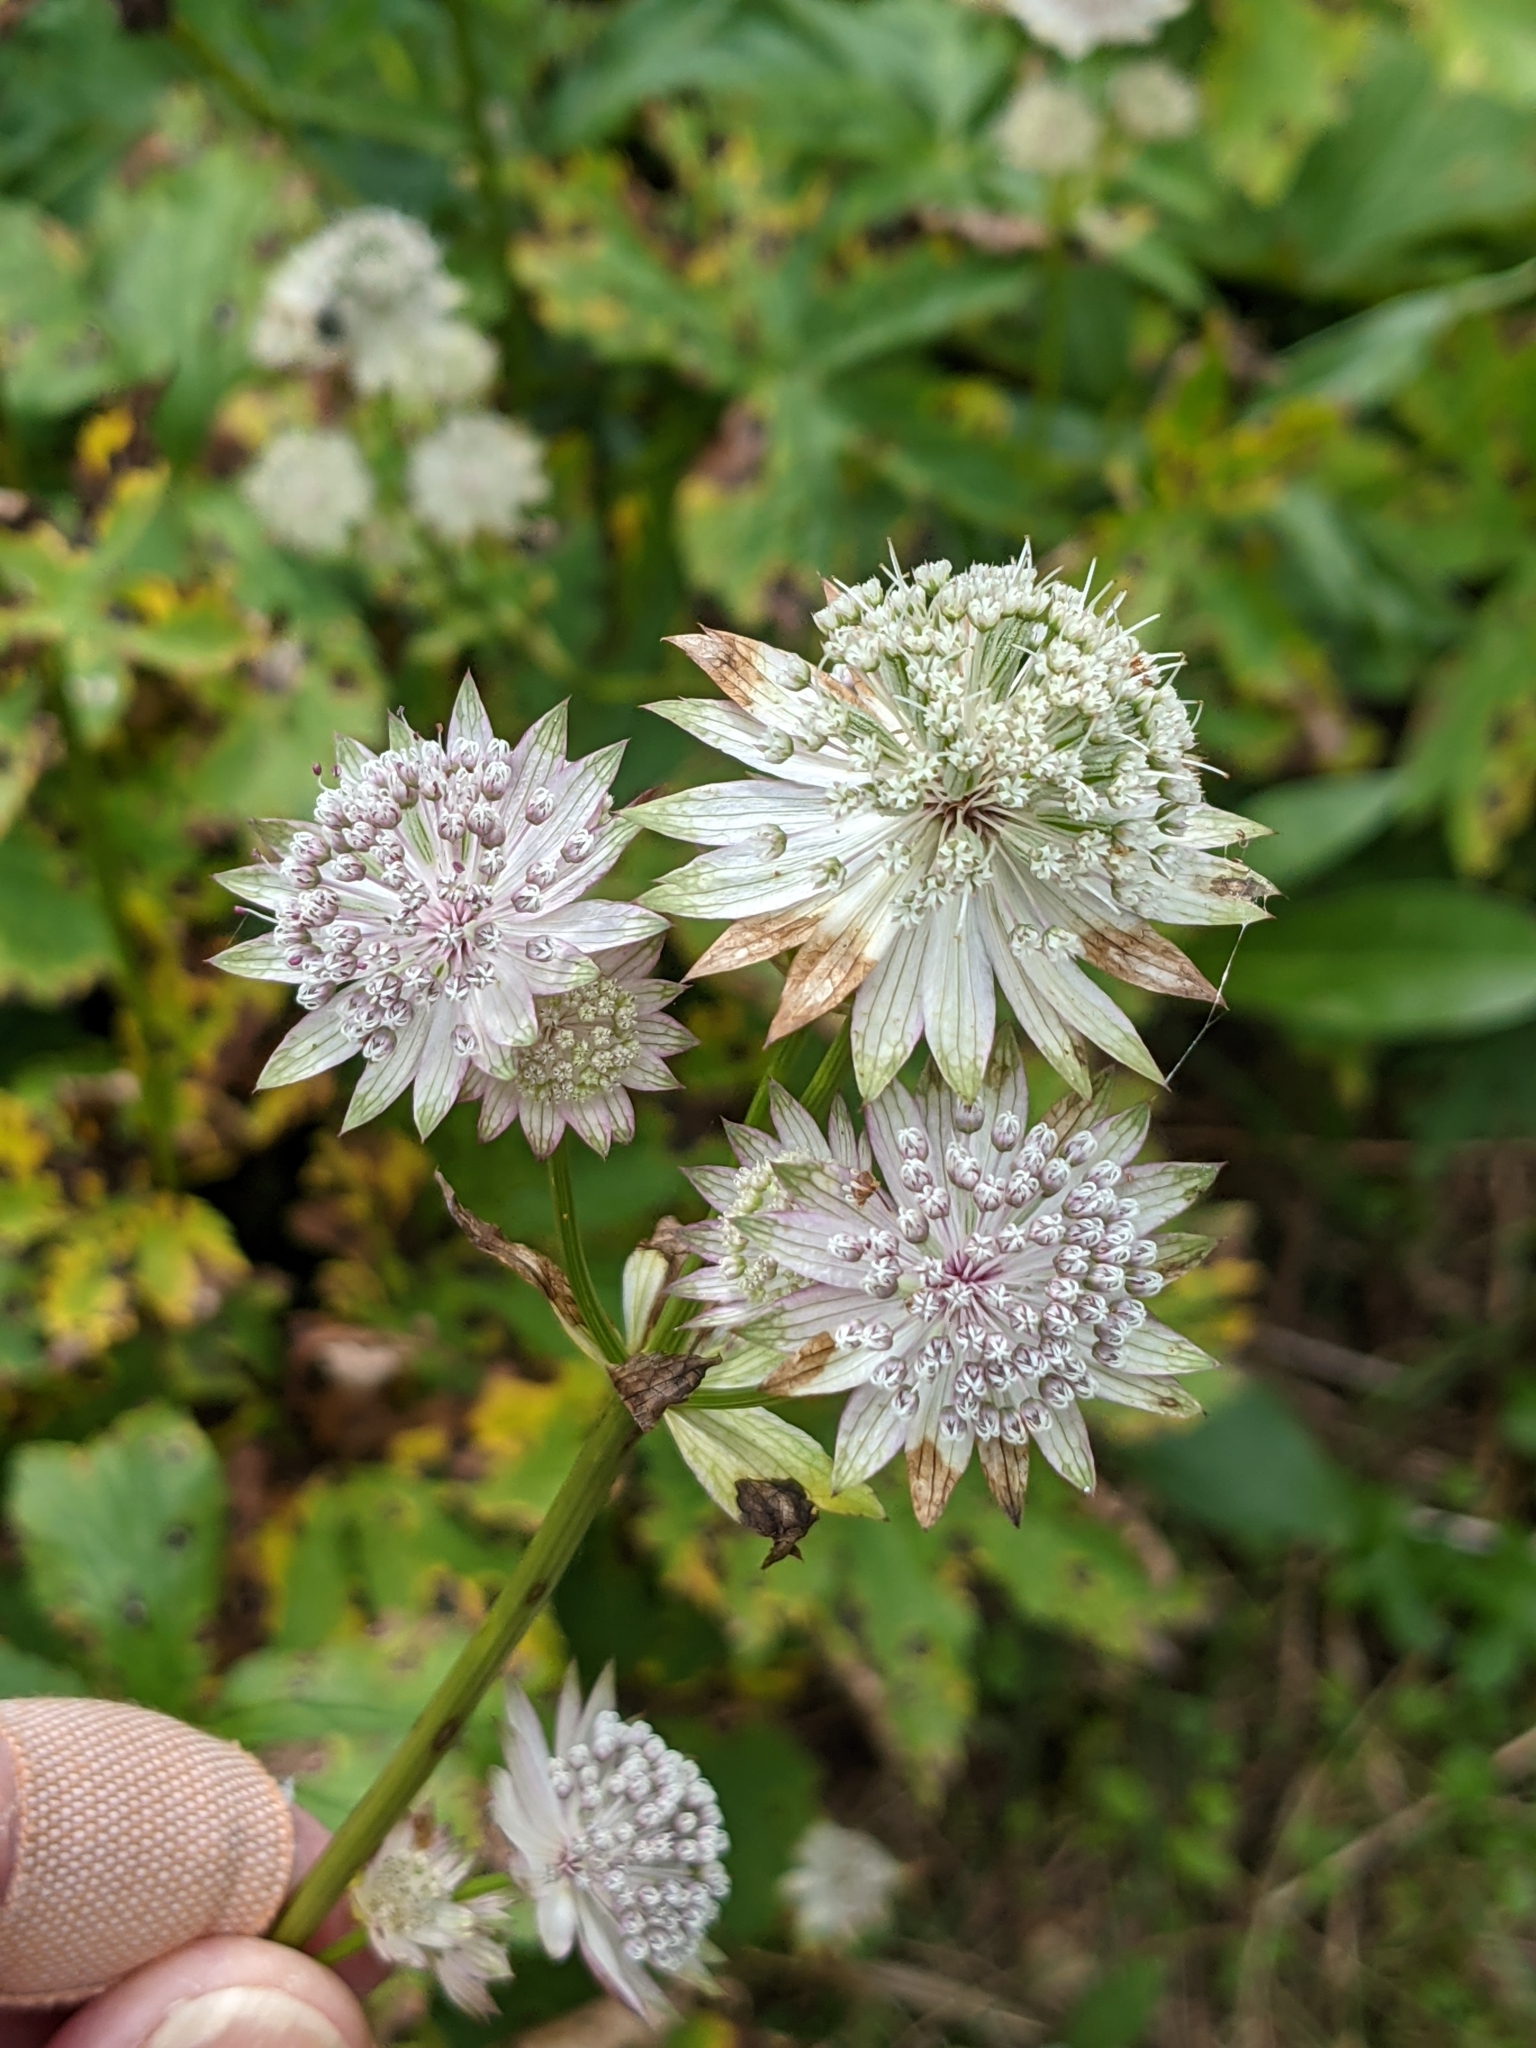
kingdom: Plantae
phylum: Tracheophyta
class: Magnoliopsida
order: Apiales
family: Apiaceae
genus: Astrantia
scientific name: Astrantia major
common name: Greater masterwort
